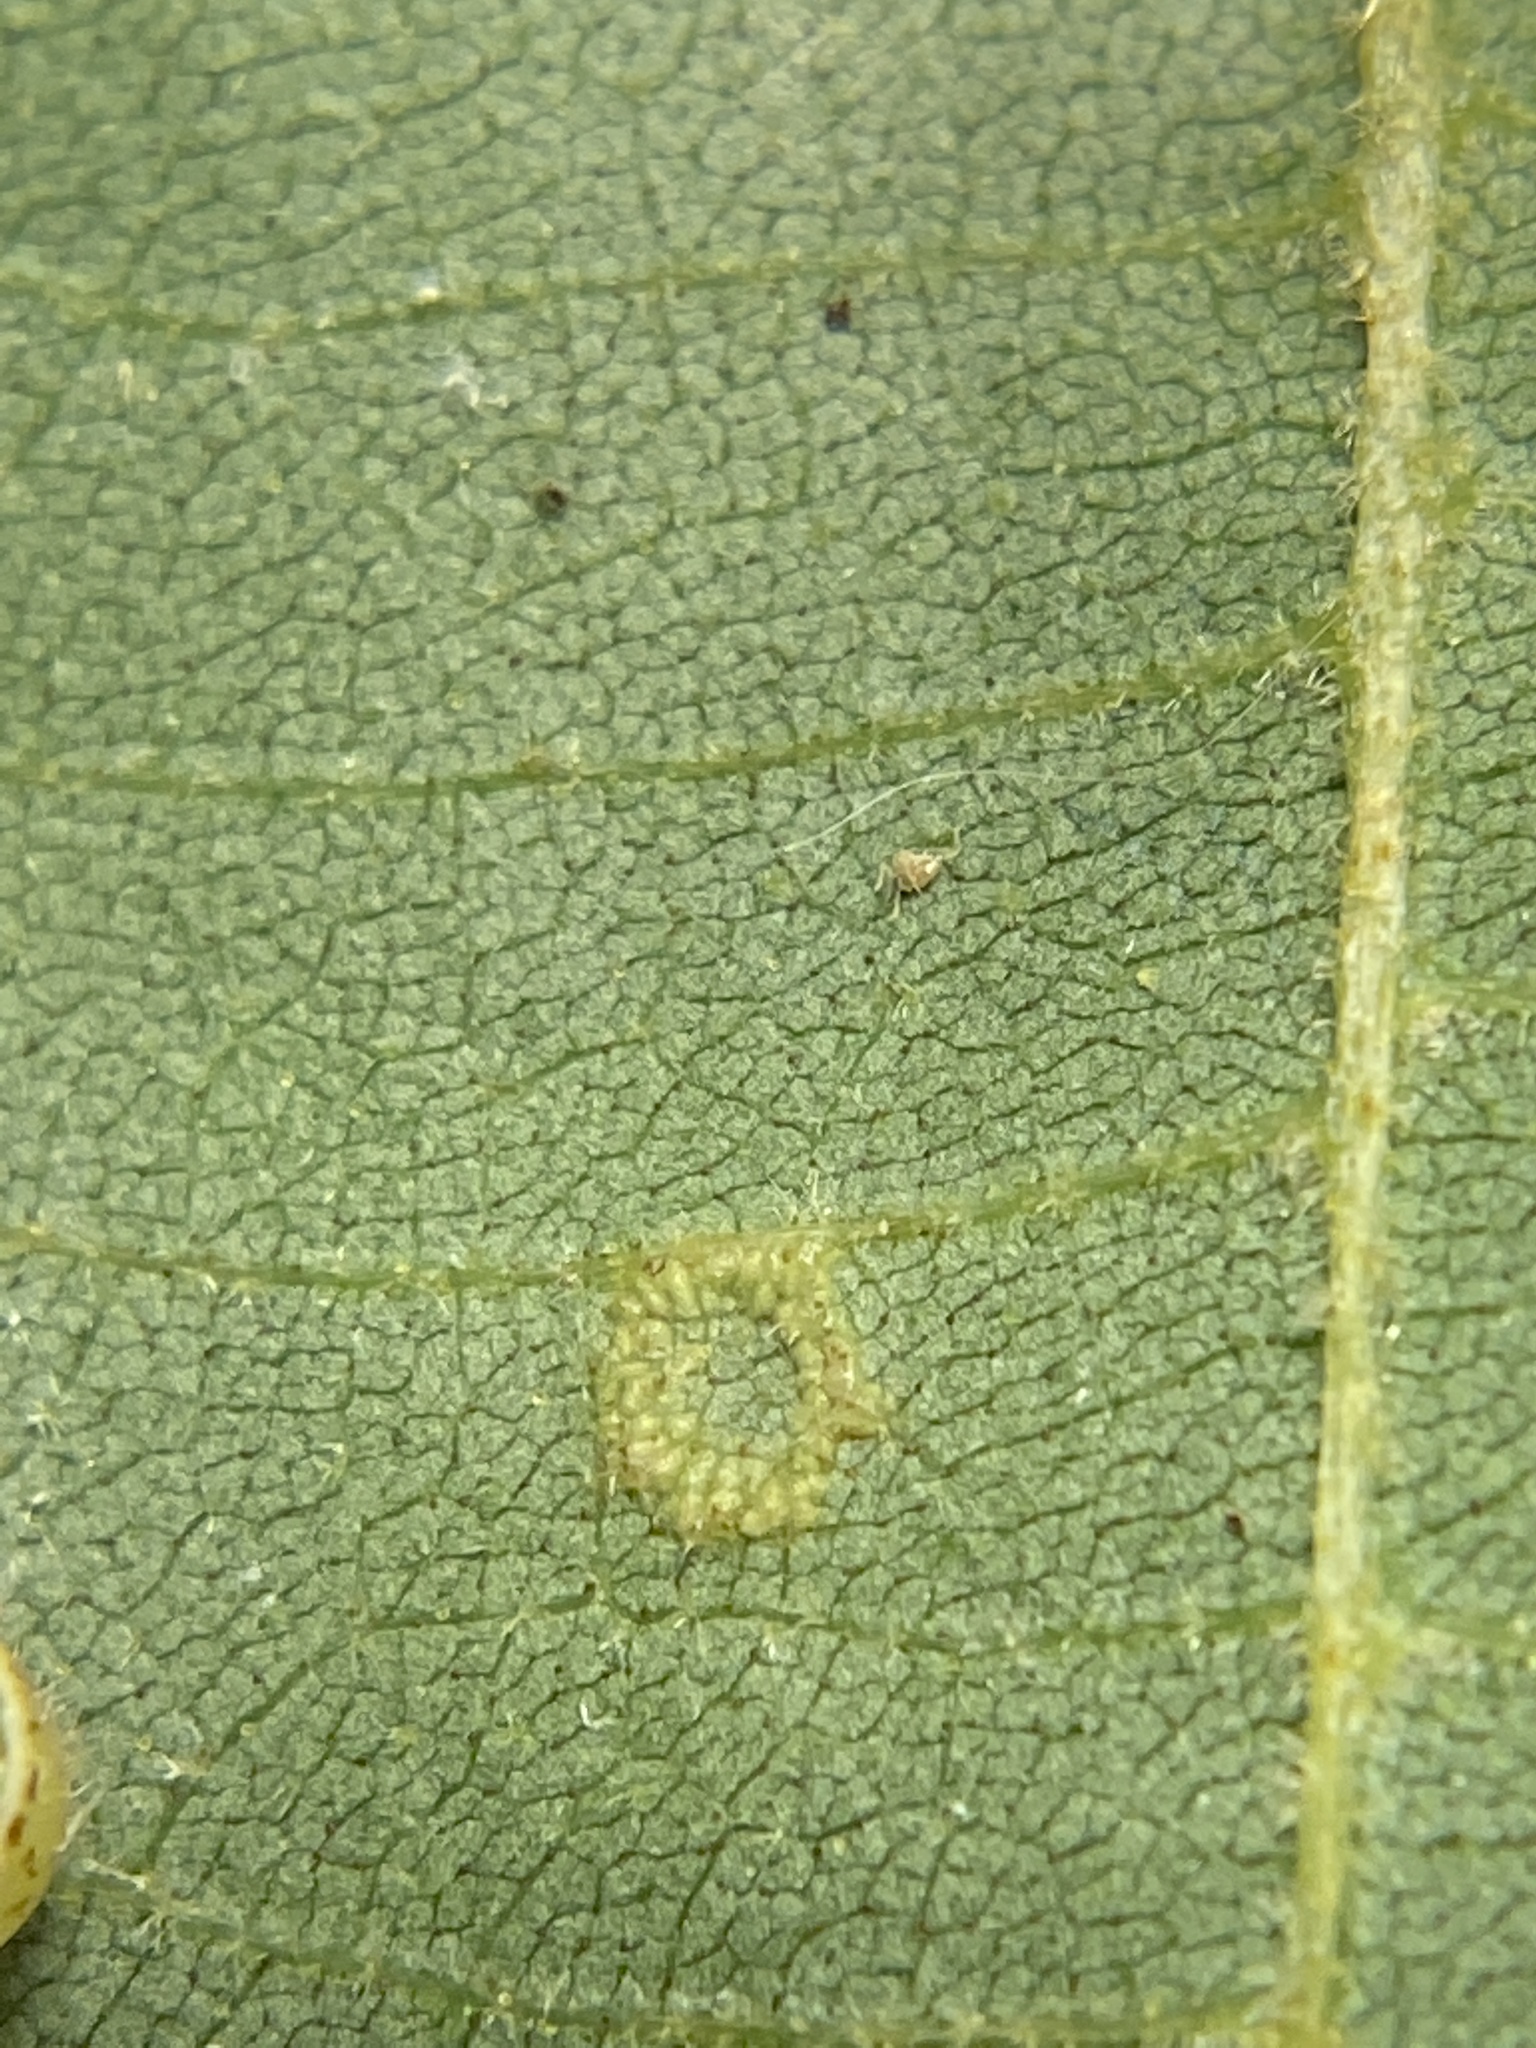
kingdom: Animalia
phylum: Arthropoda
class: Insecta
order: Diptera
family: Cecidomyiidae
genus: Gliaspilota
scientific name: Gliaspilota glutinosa
